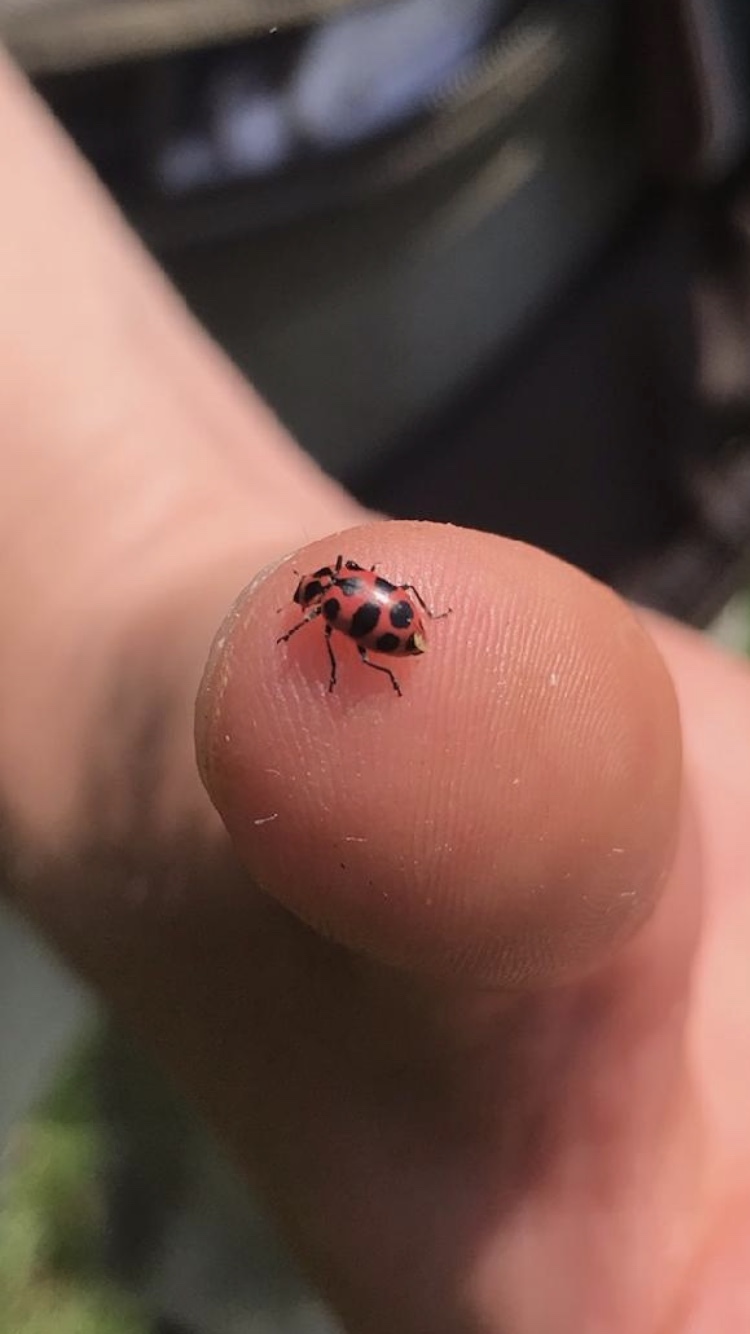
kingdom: Animalia
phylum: Arthropoda
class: Insecta
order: Coleoptera
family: Coccinellidae
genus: Coleomegilla
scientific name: Coleomegilla maculata
